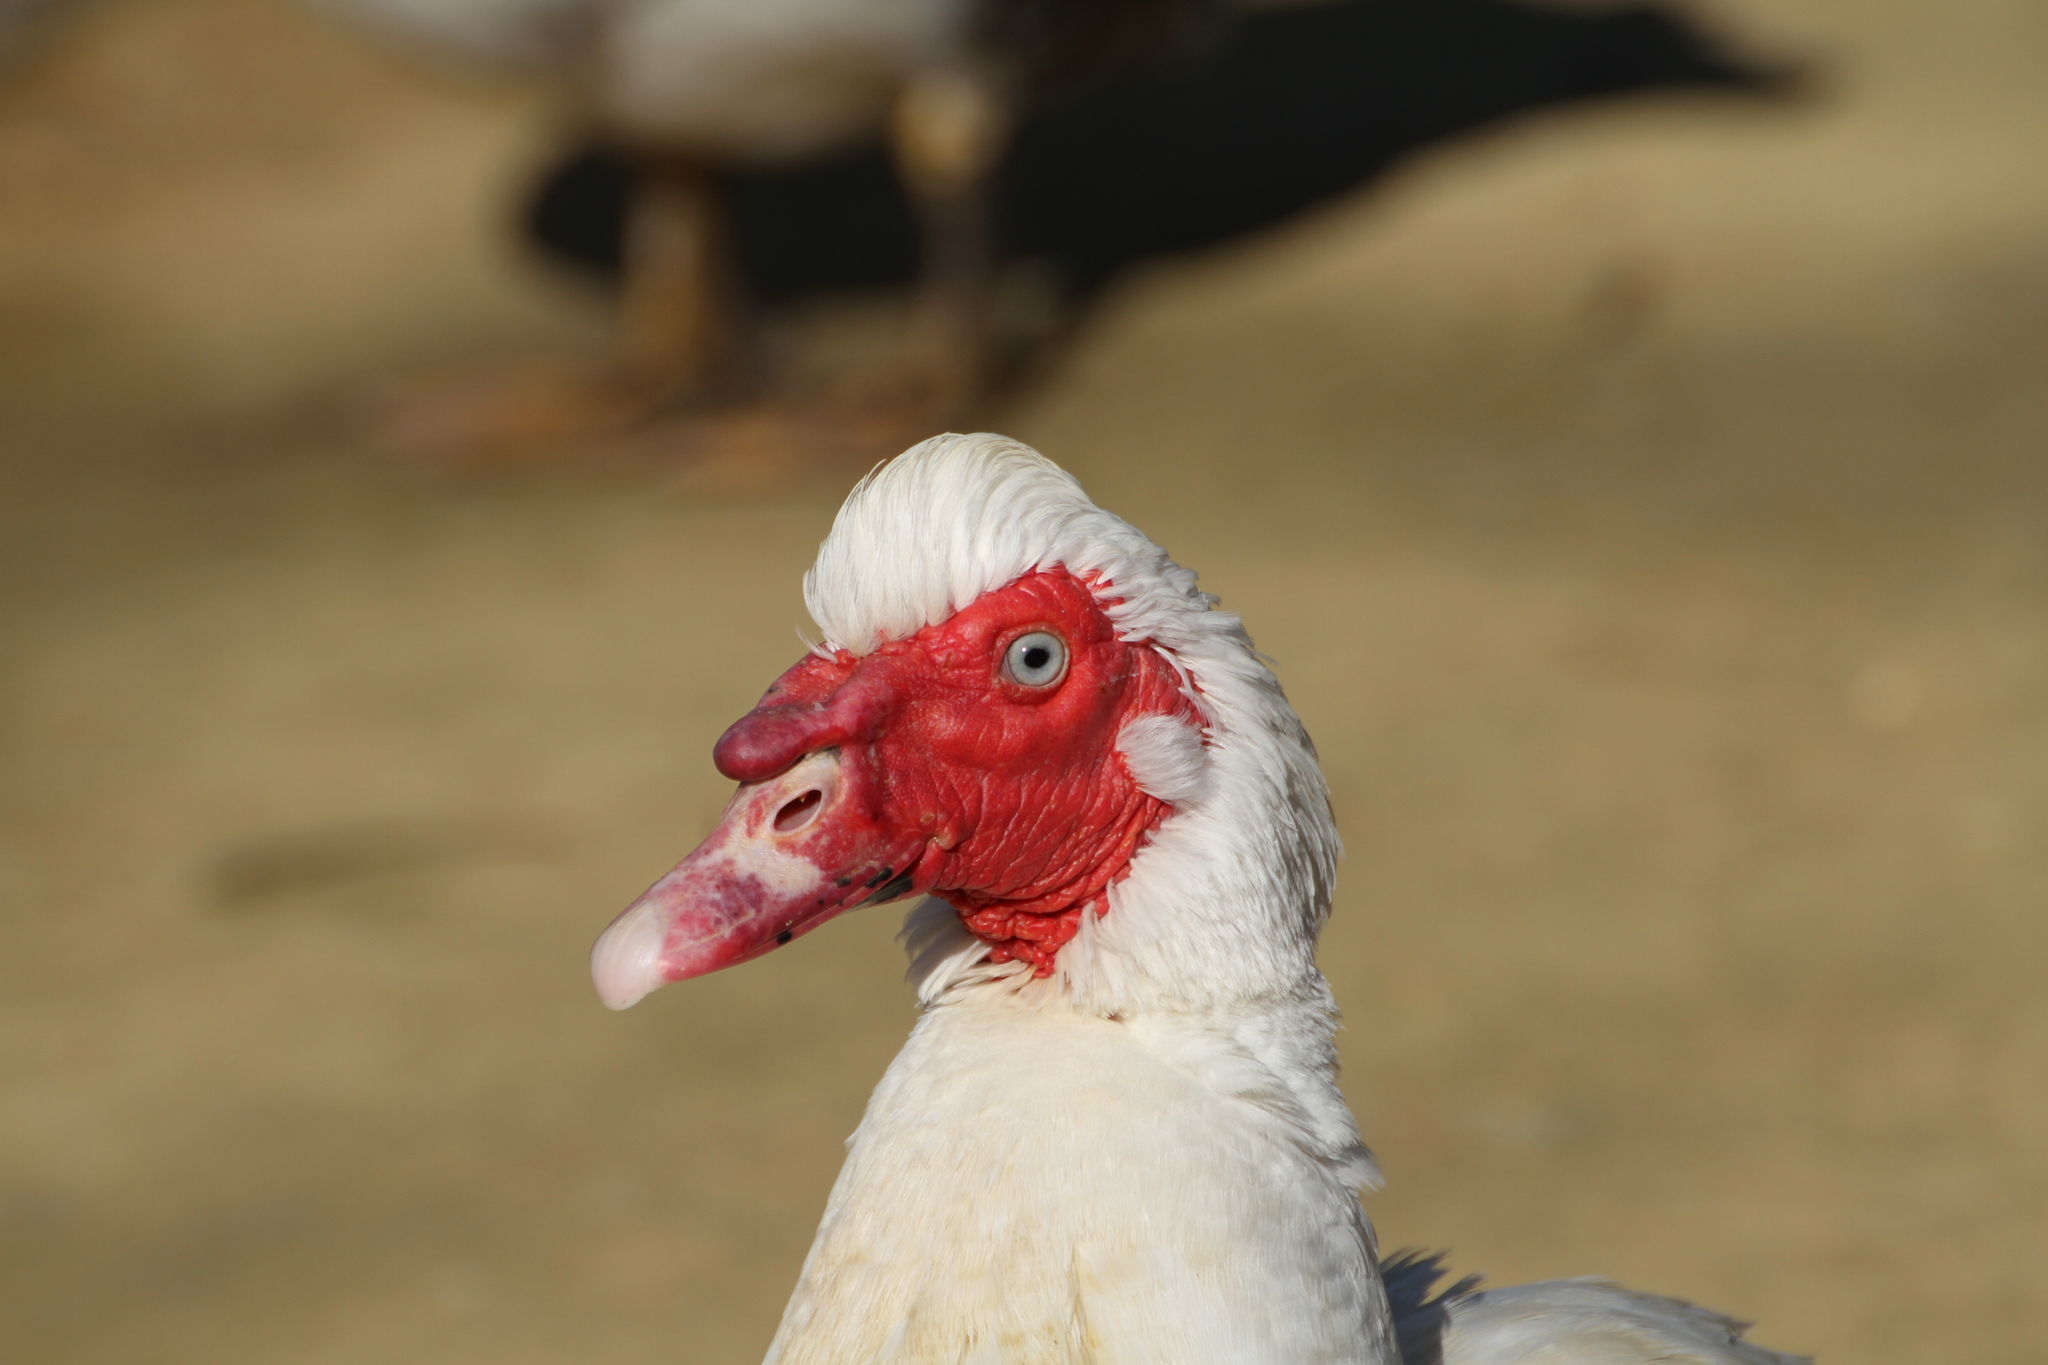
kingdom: Animalia
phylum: Chordata
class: Aves
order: Anseriformes
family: Anatidae
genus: Cairina
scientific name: Cairina moschata
